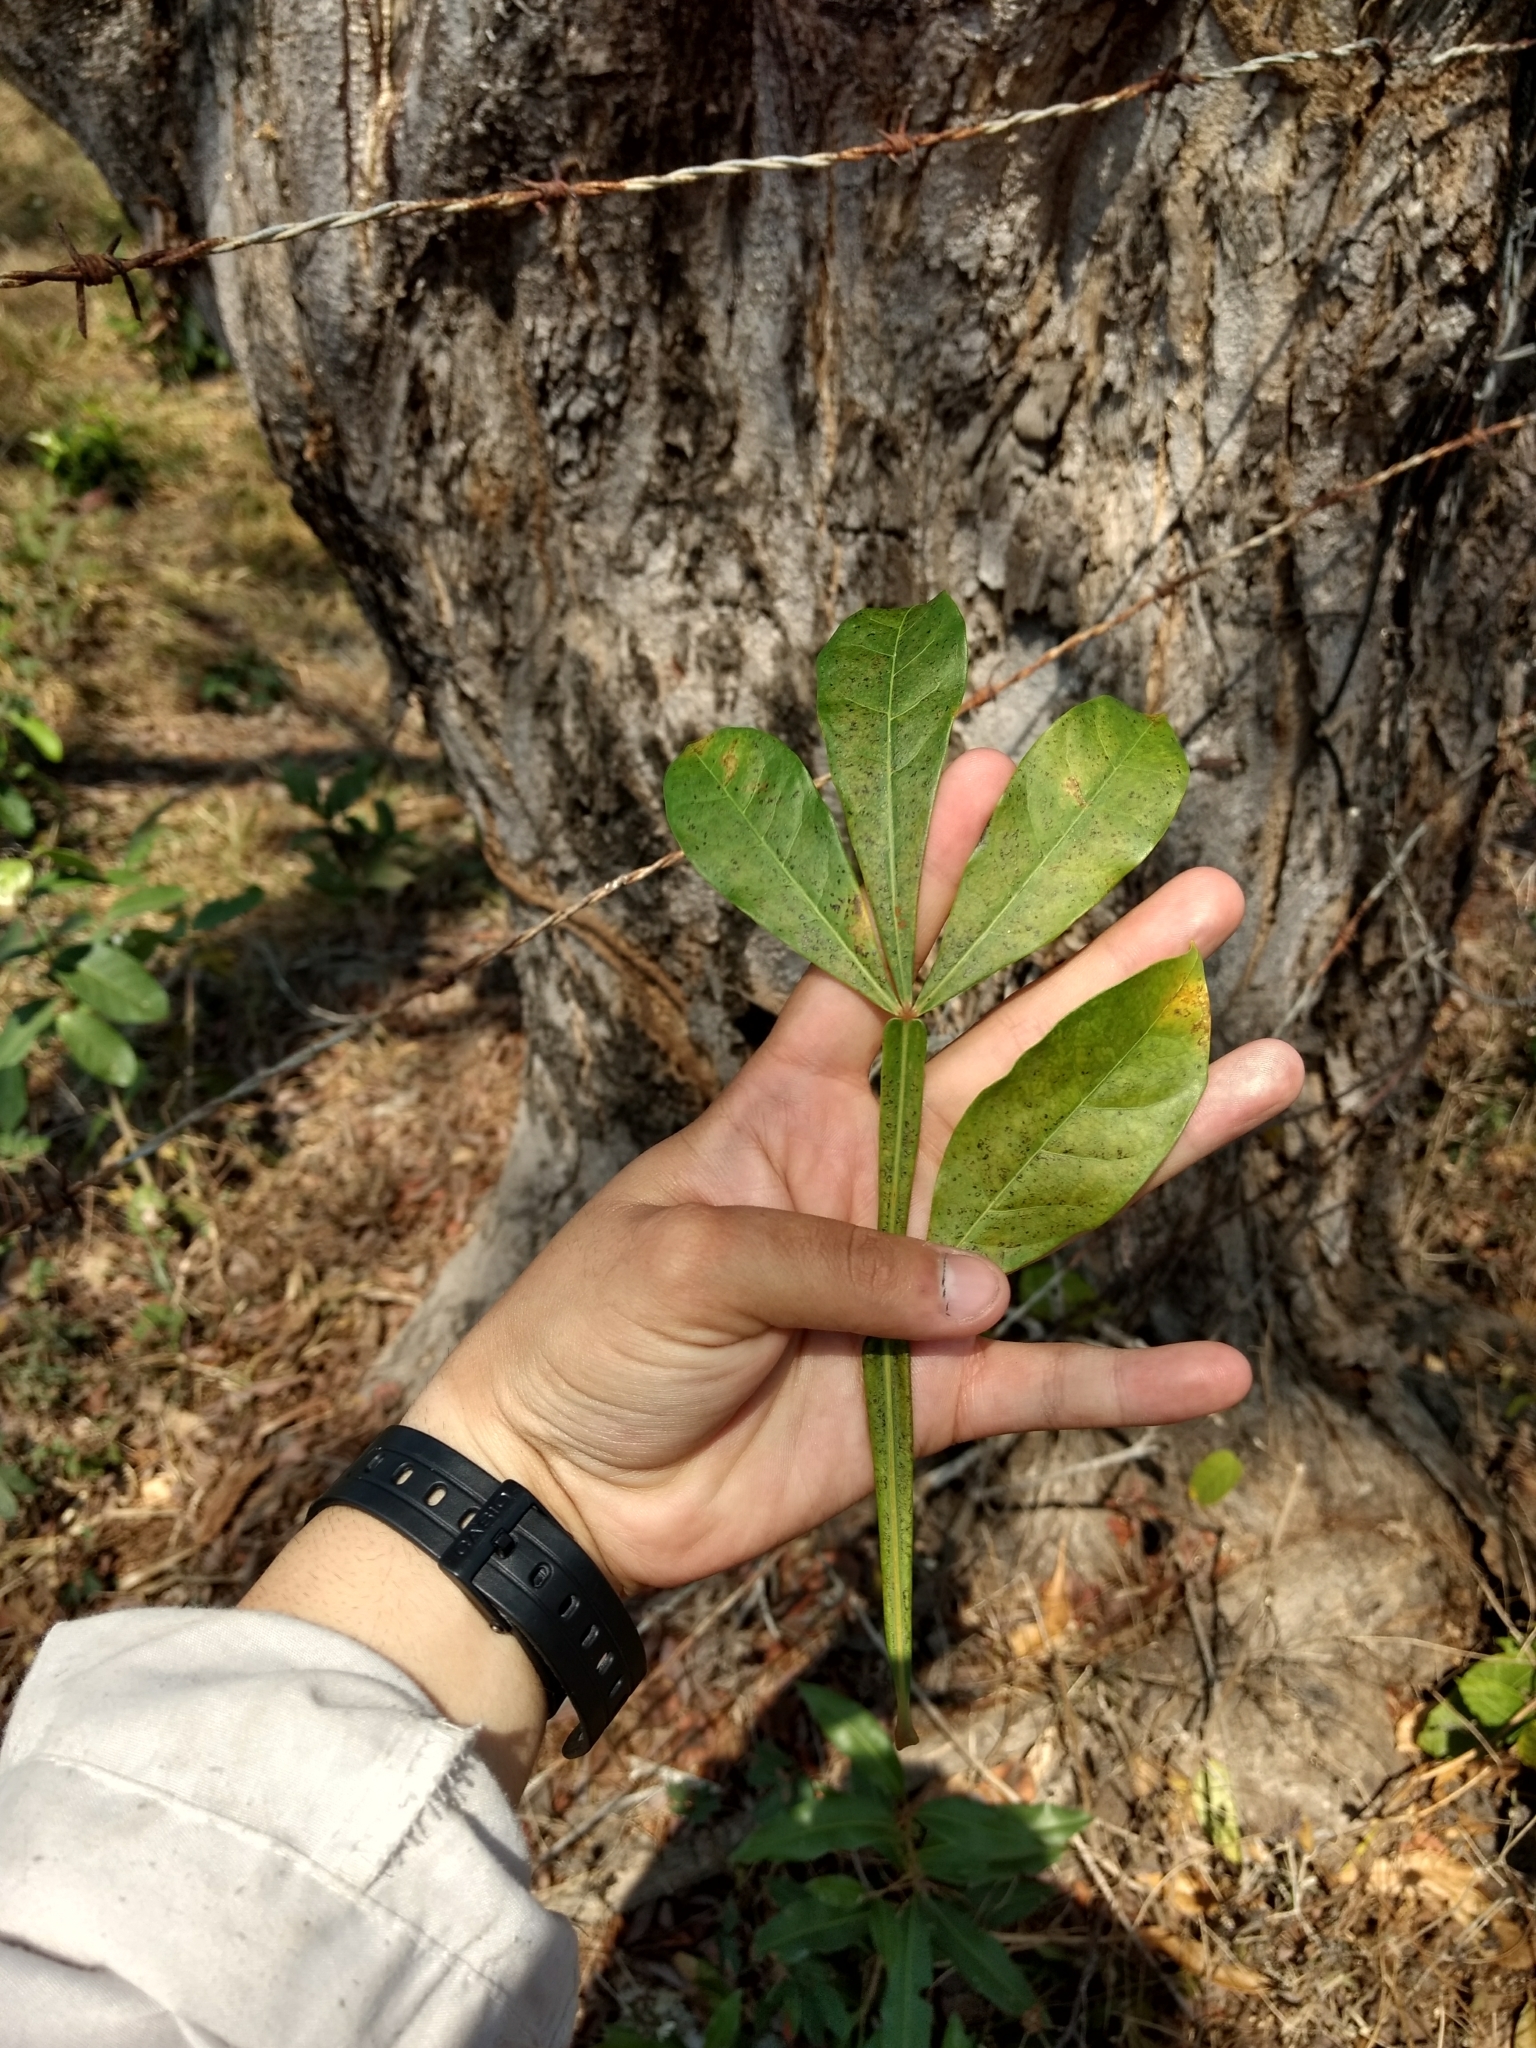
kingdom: Plantae
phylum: Tracheophyta
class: Magnoliopsida
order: Lamiales
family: Bignoniaceae
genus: Crescentia
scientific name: Crescentia alata
